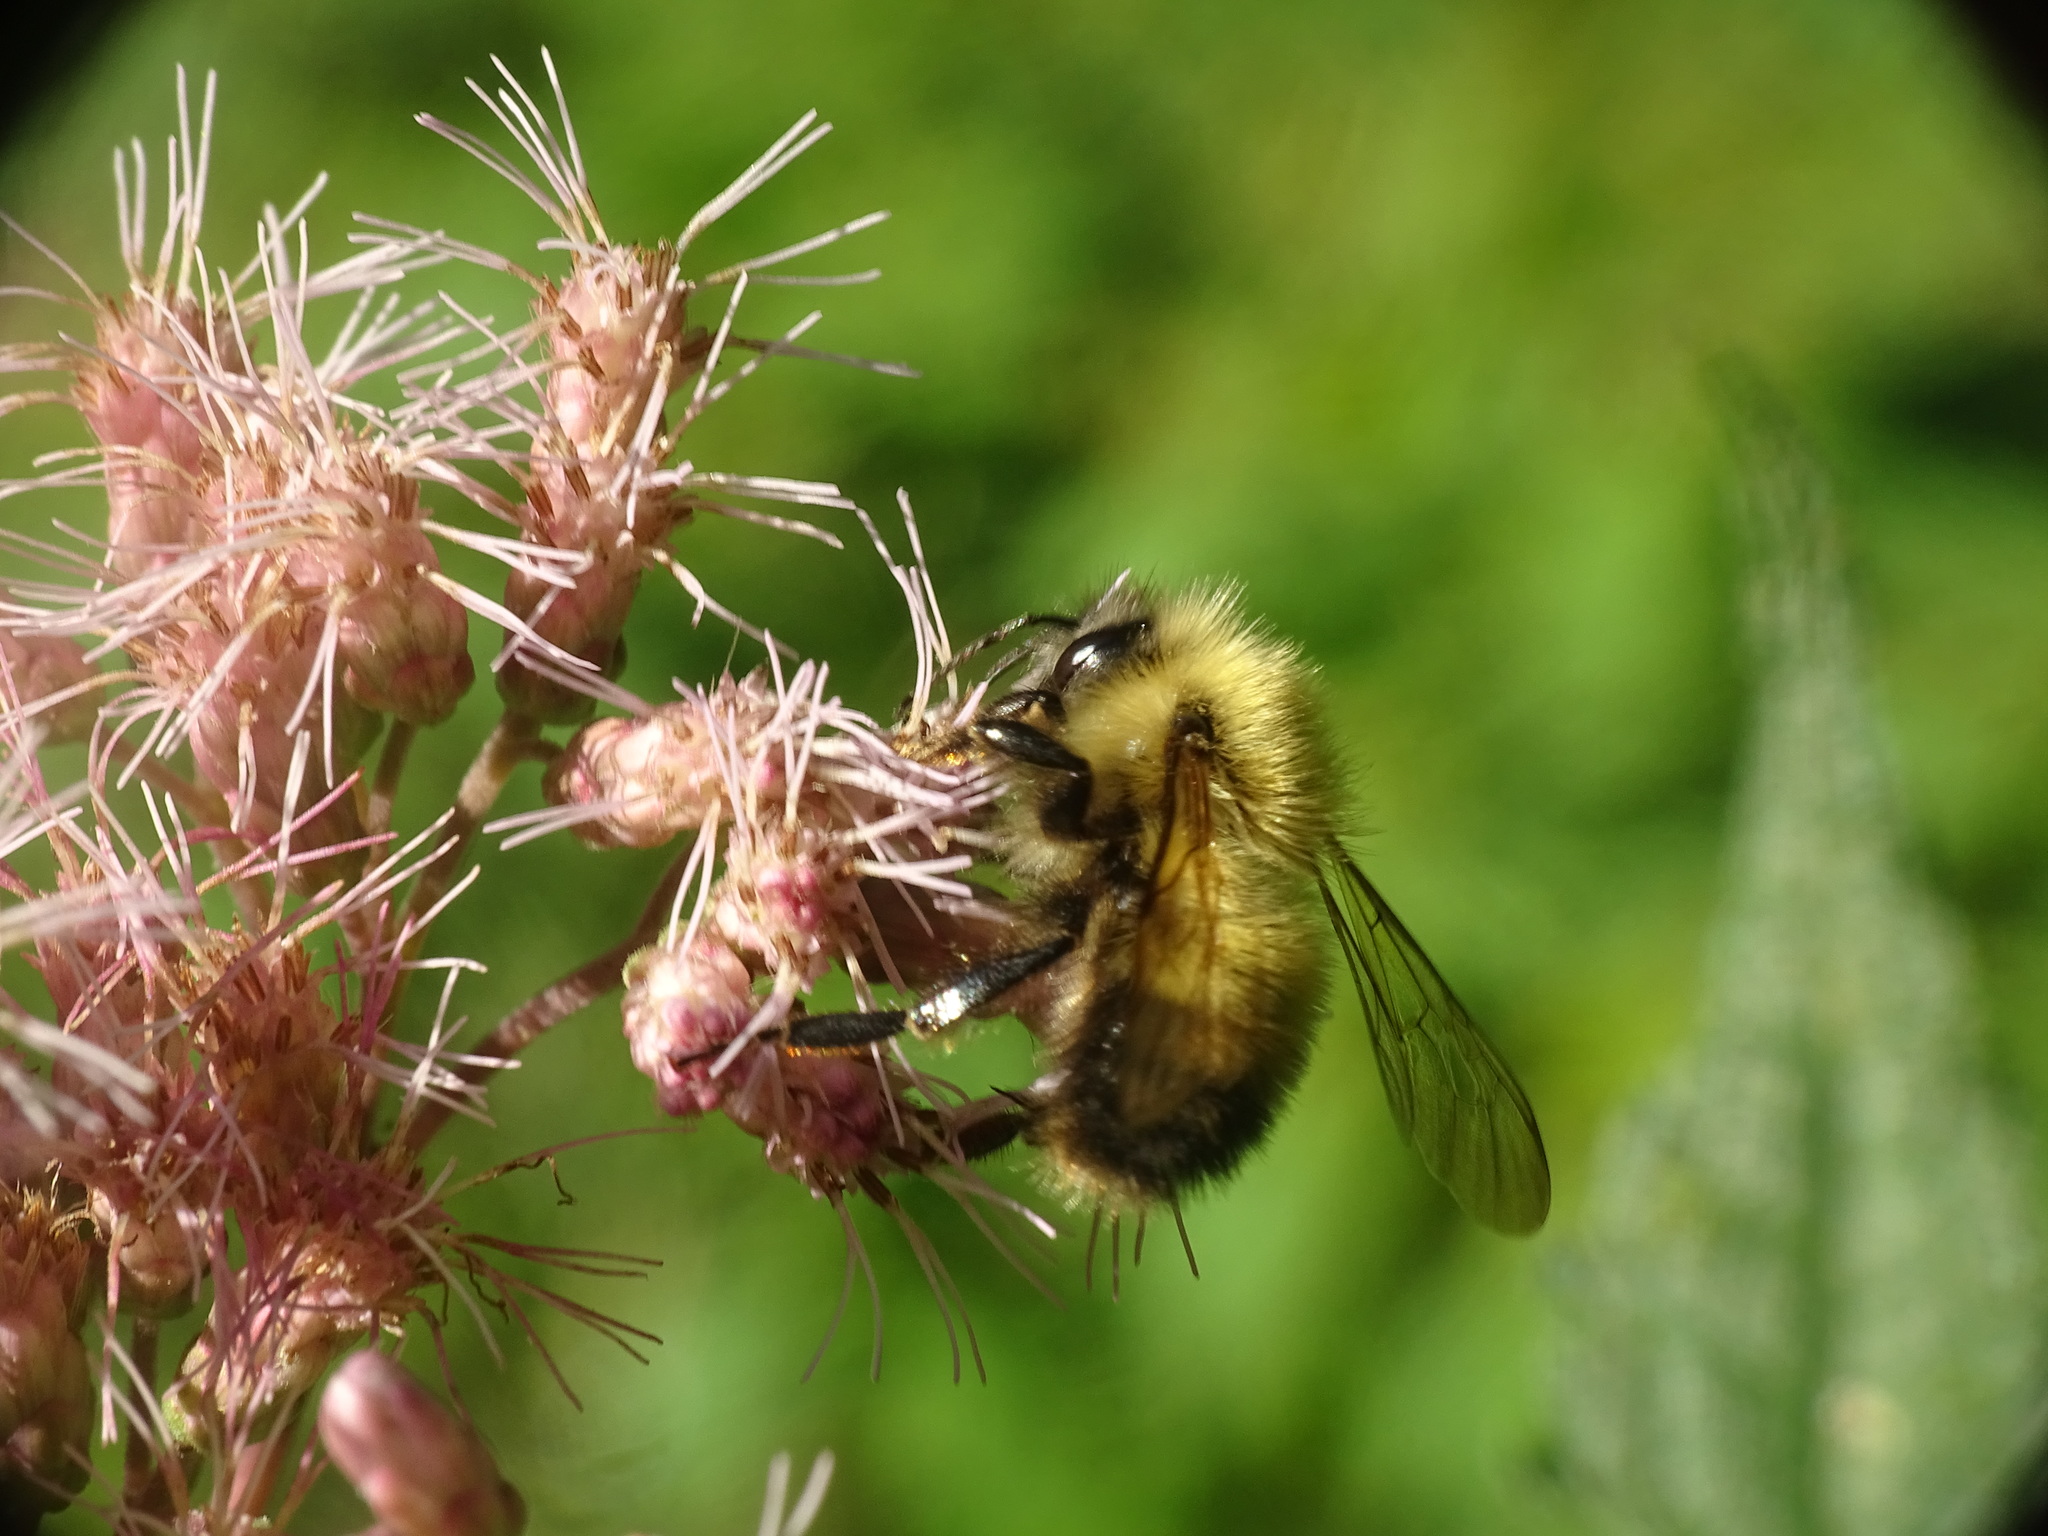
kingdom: Animalia
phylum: Arthropoda
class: Insecta
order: Hymenoptera
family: Apidae
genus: Bombus
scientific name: Bombus perplexus
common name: Confusing bumble bee
